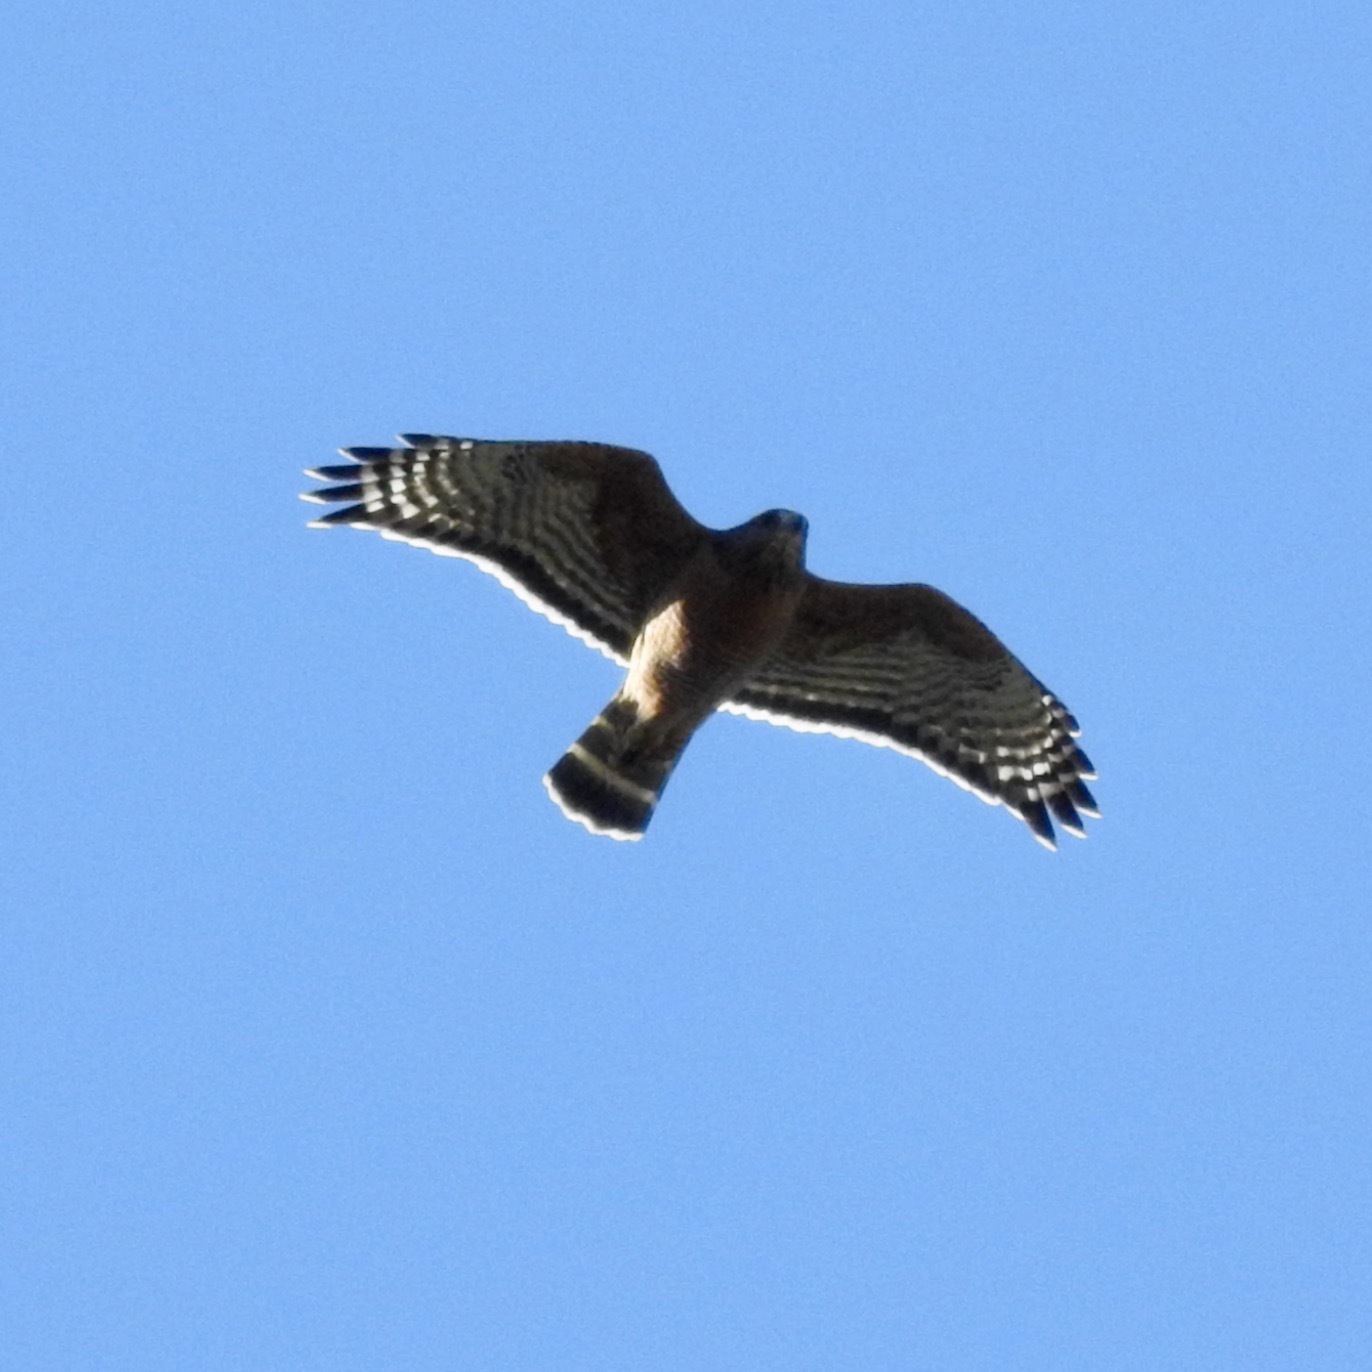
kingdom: Animalia
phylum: Chordata
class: Aves
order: Accipitriformes
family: Accipitridae
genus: Buteo
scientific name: Buteo lineatus
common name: Red-shouldered hawk
